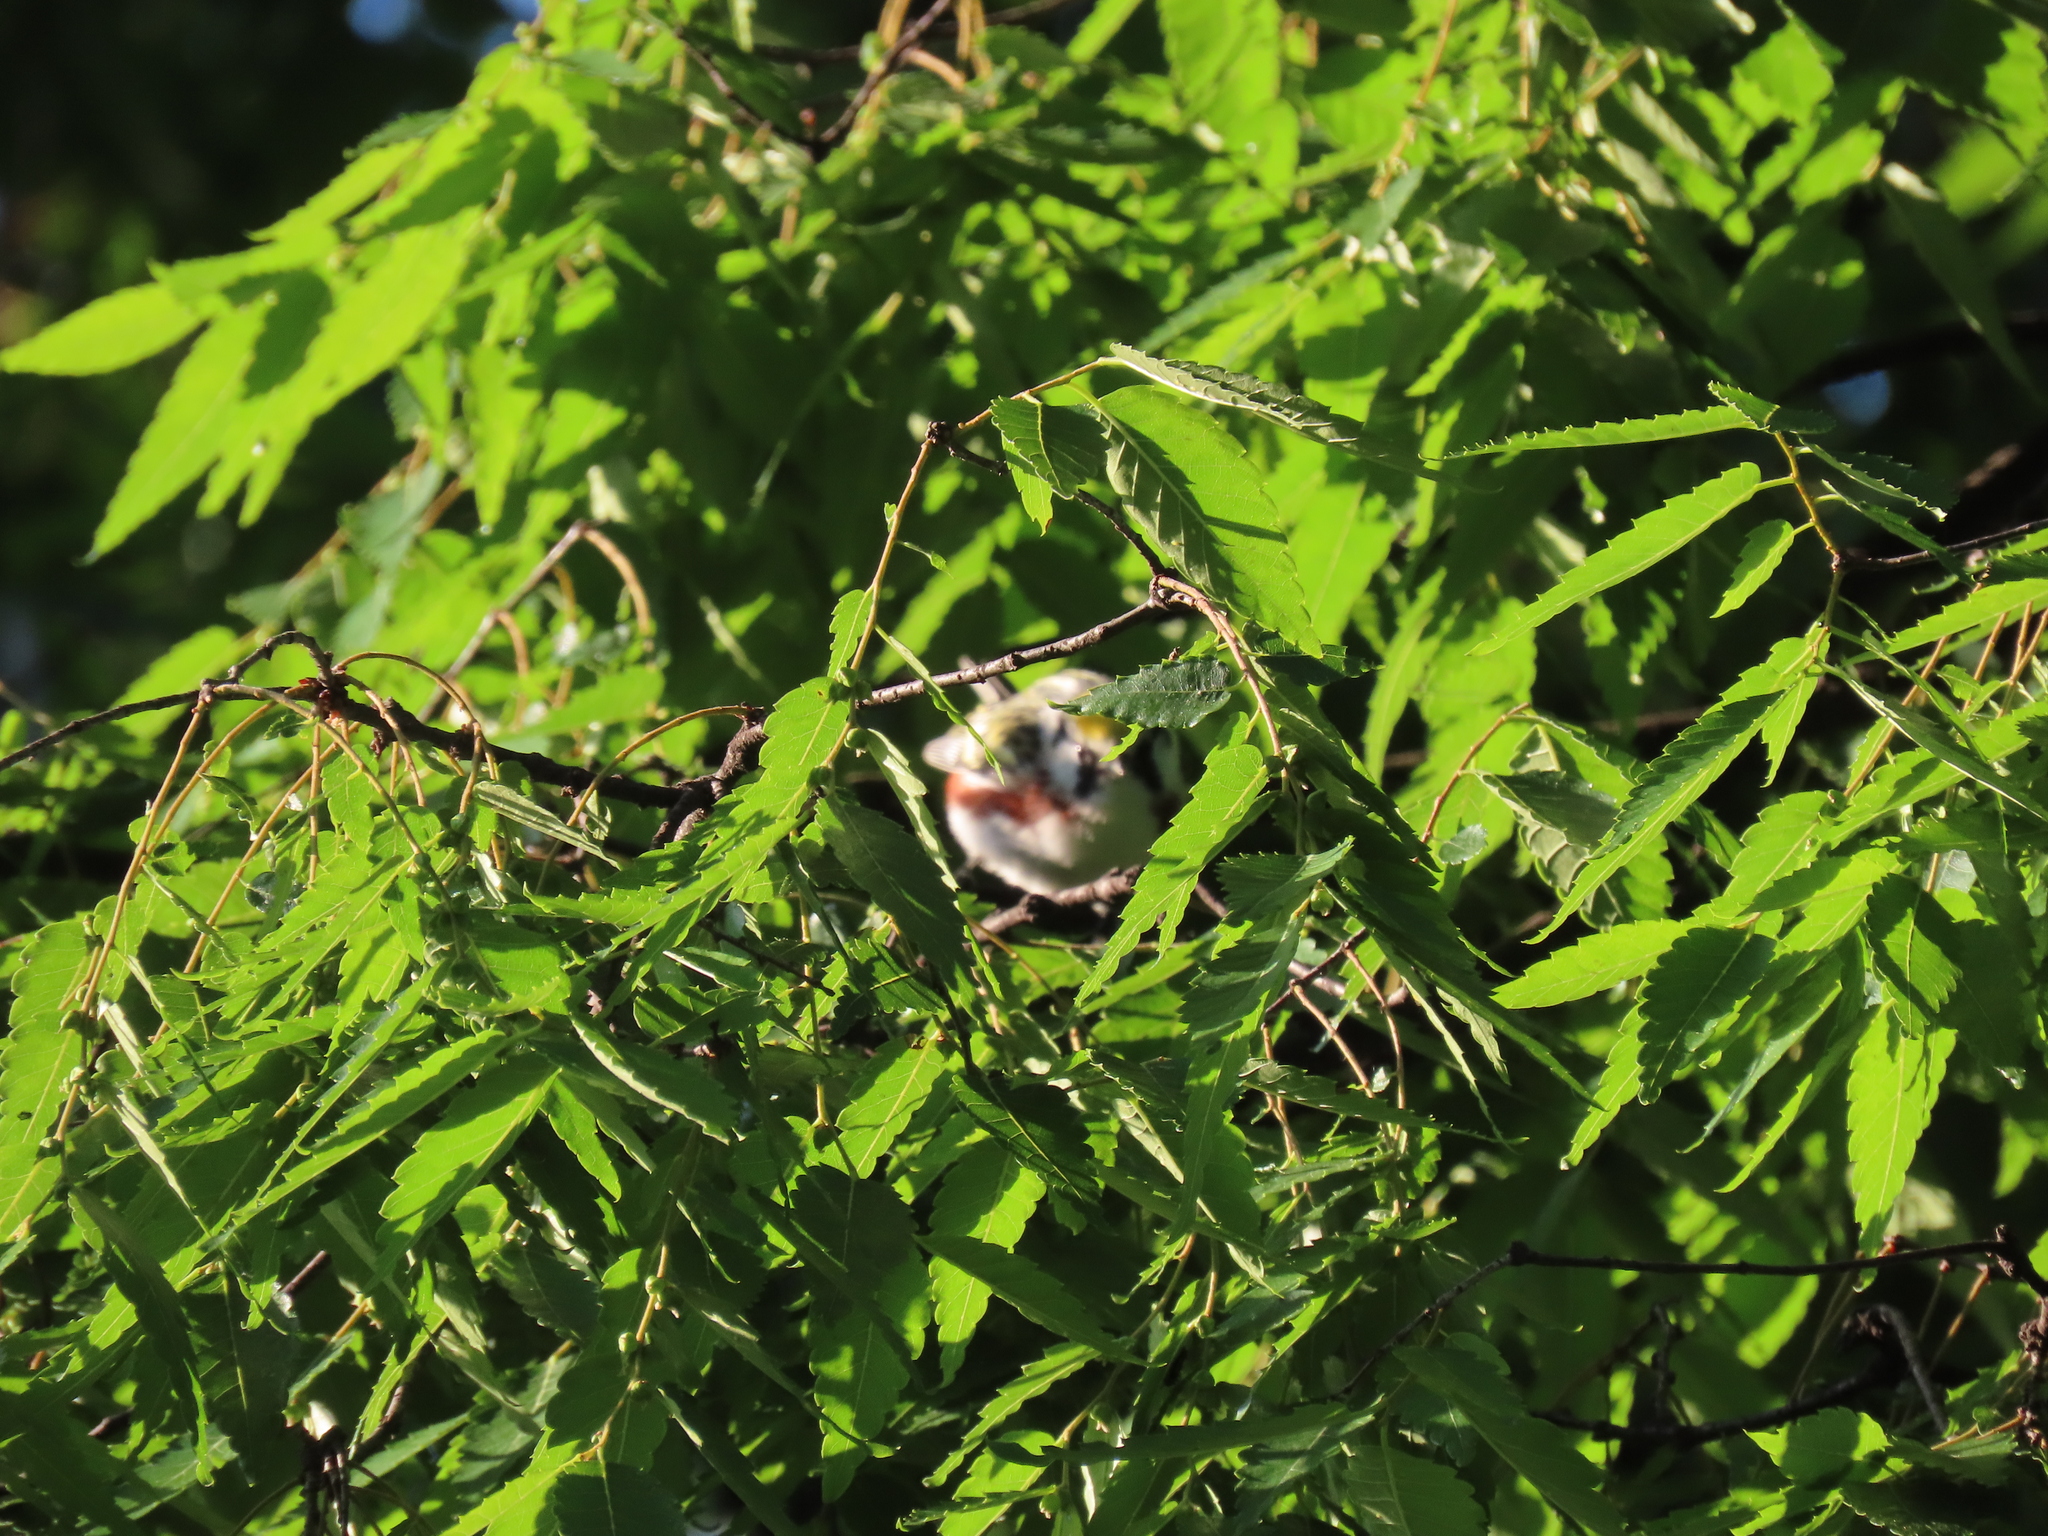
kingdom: Animalia
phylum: Chordata
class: Aves
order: Passeriformes
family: Parulidae
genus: Setophaga
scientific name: Setophaga pensylvanica
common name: Chestnut-sided warbler
